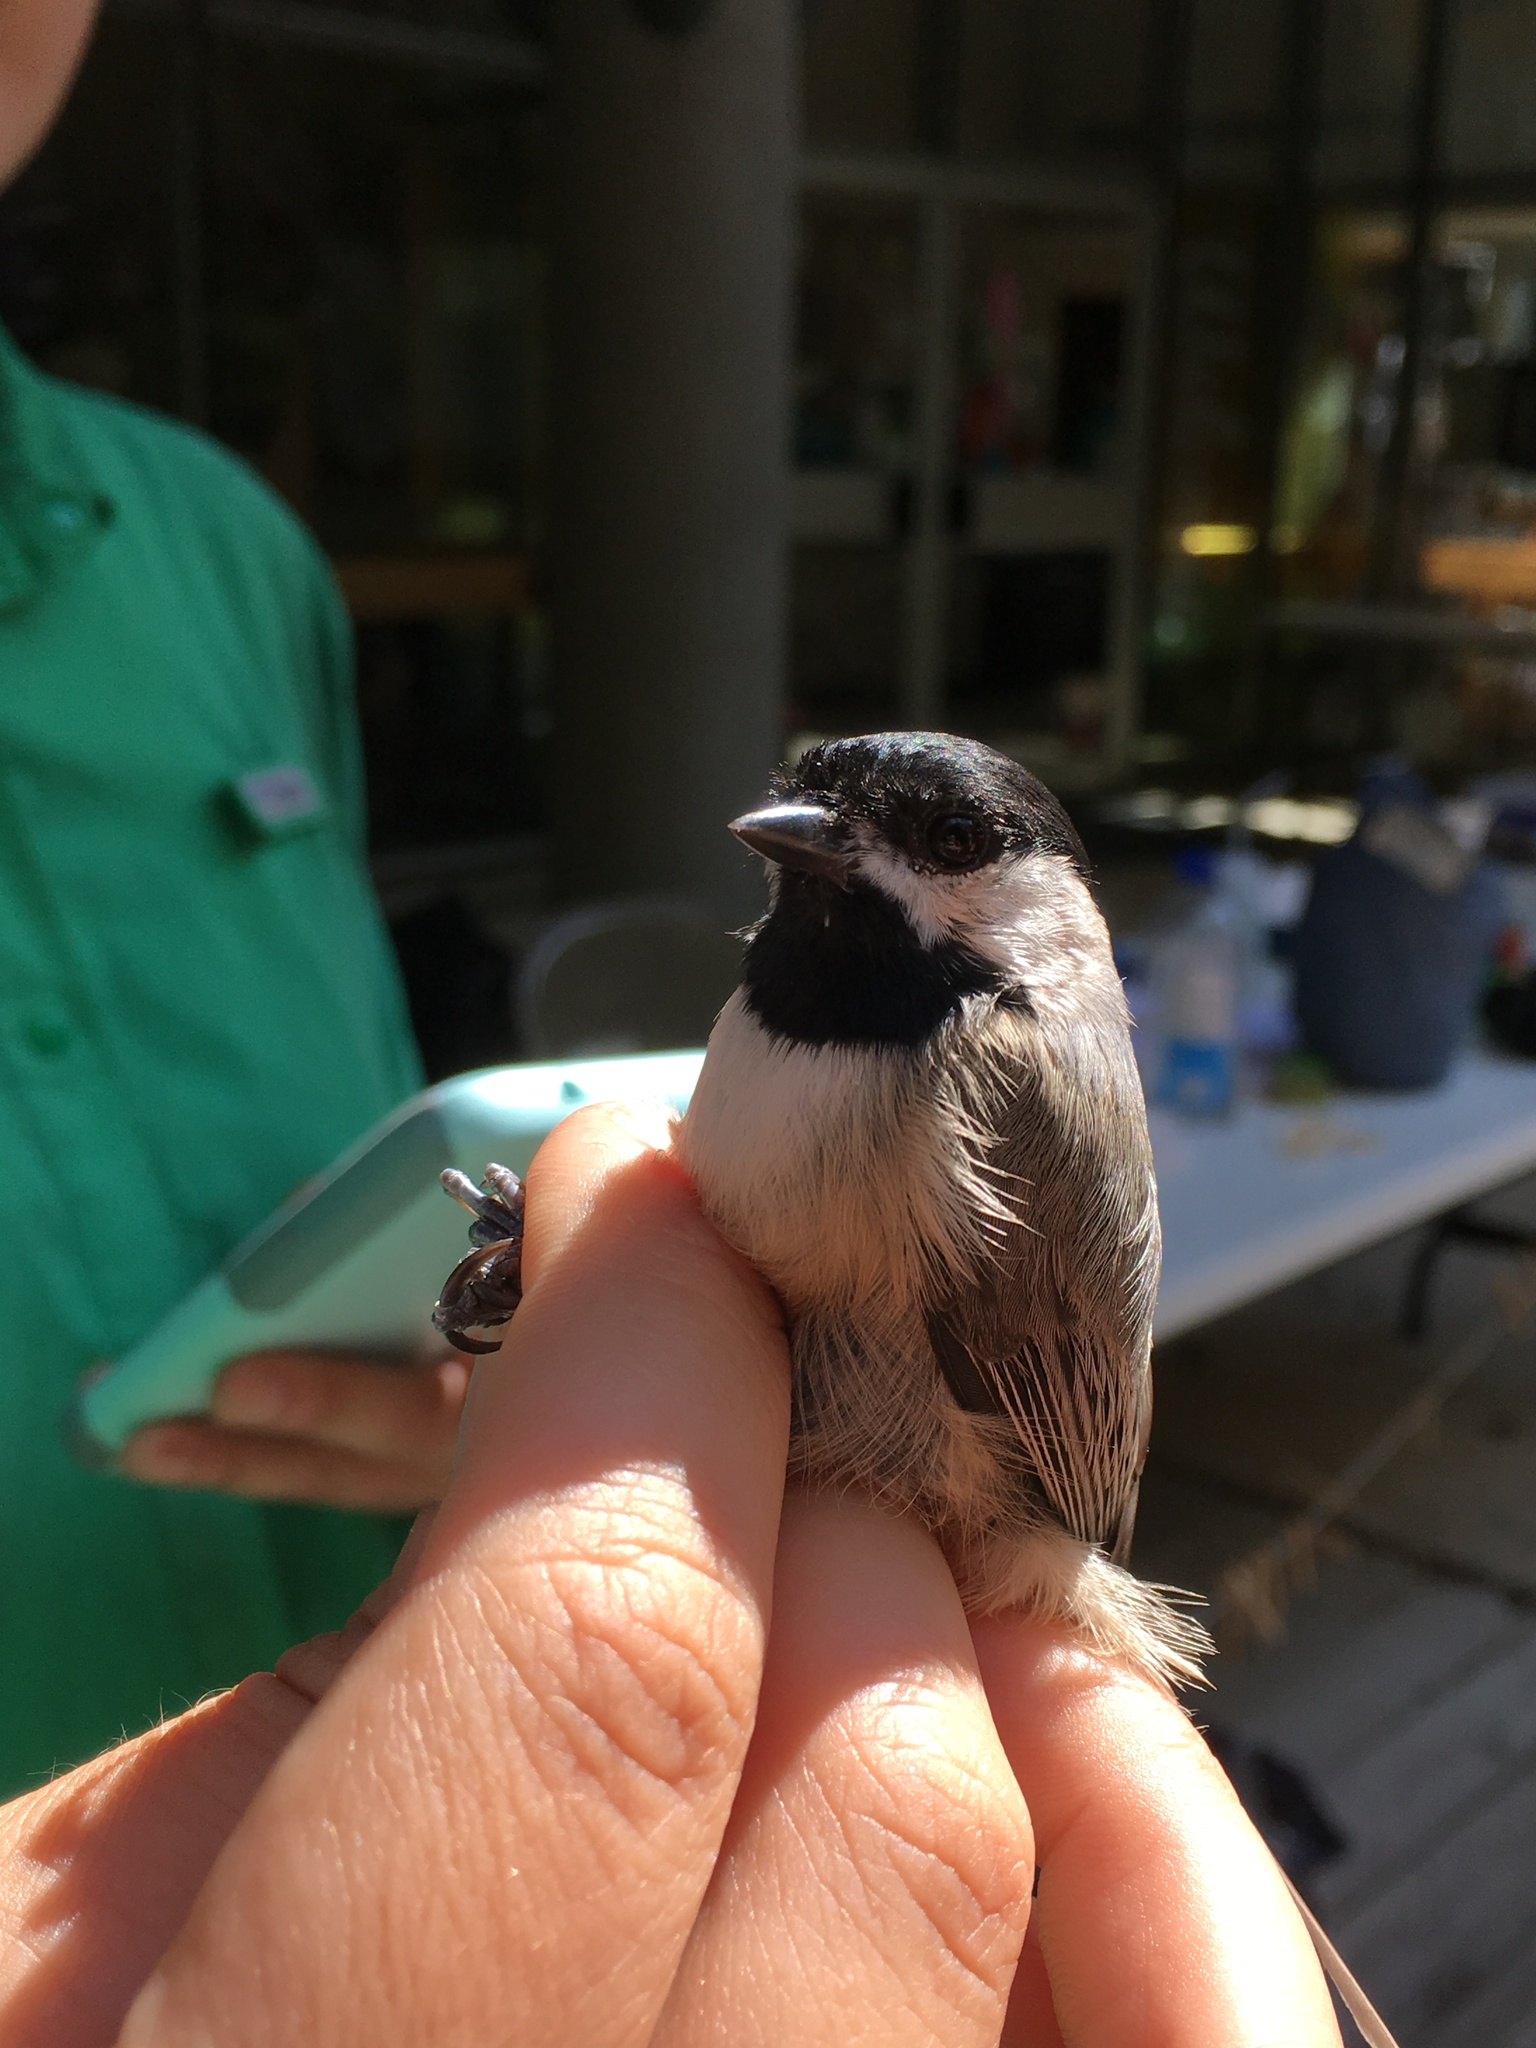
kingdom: Animalia
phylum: Chordata
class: Aves
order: Passeriformes
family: Paridae
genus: Poecile
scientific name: Poecile carolinensis
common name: Carolina chickadee
